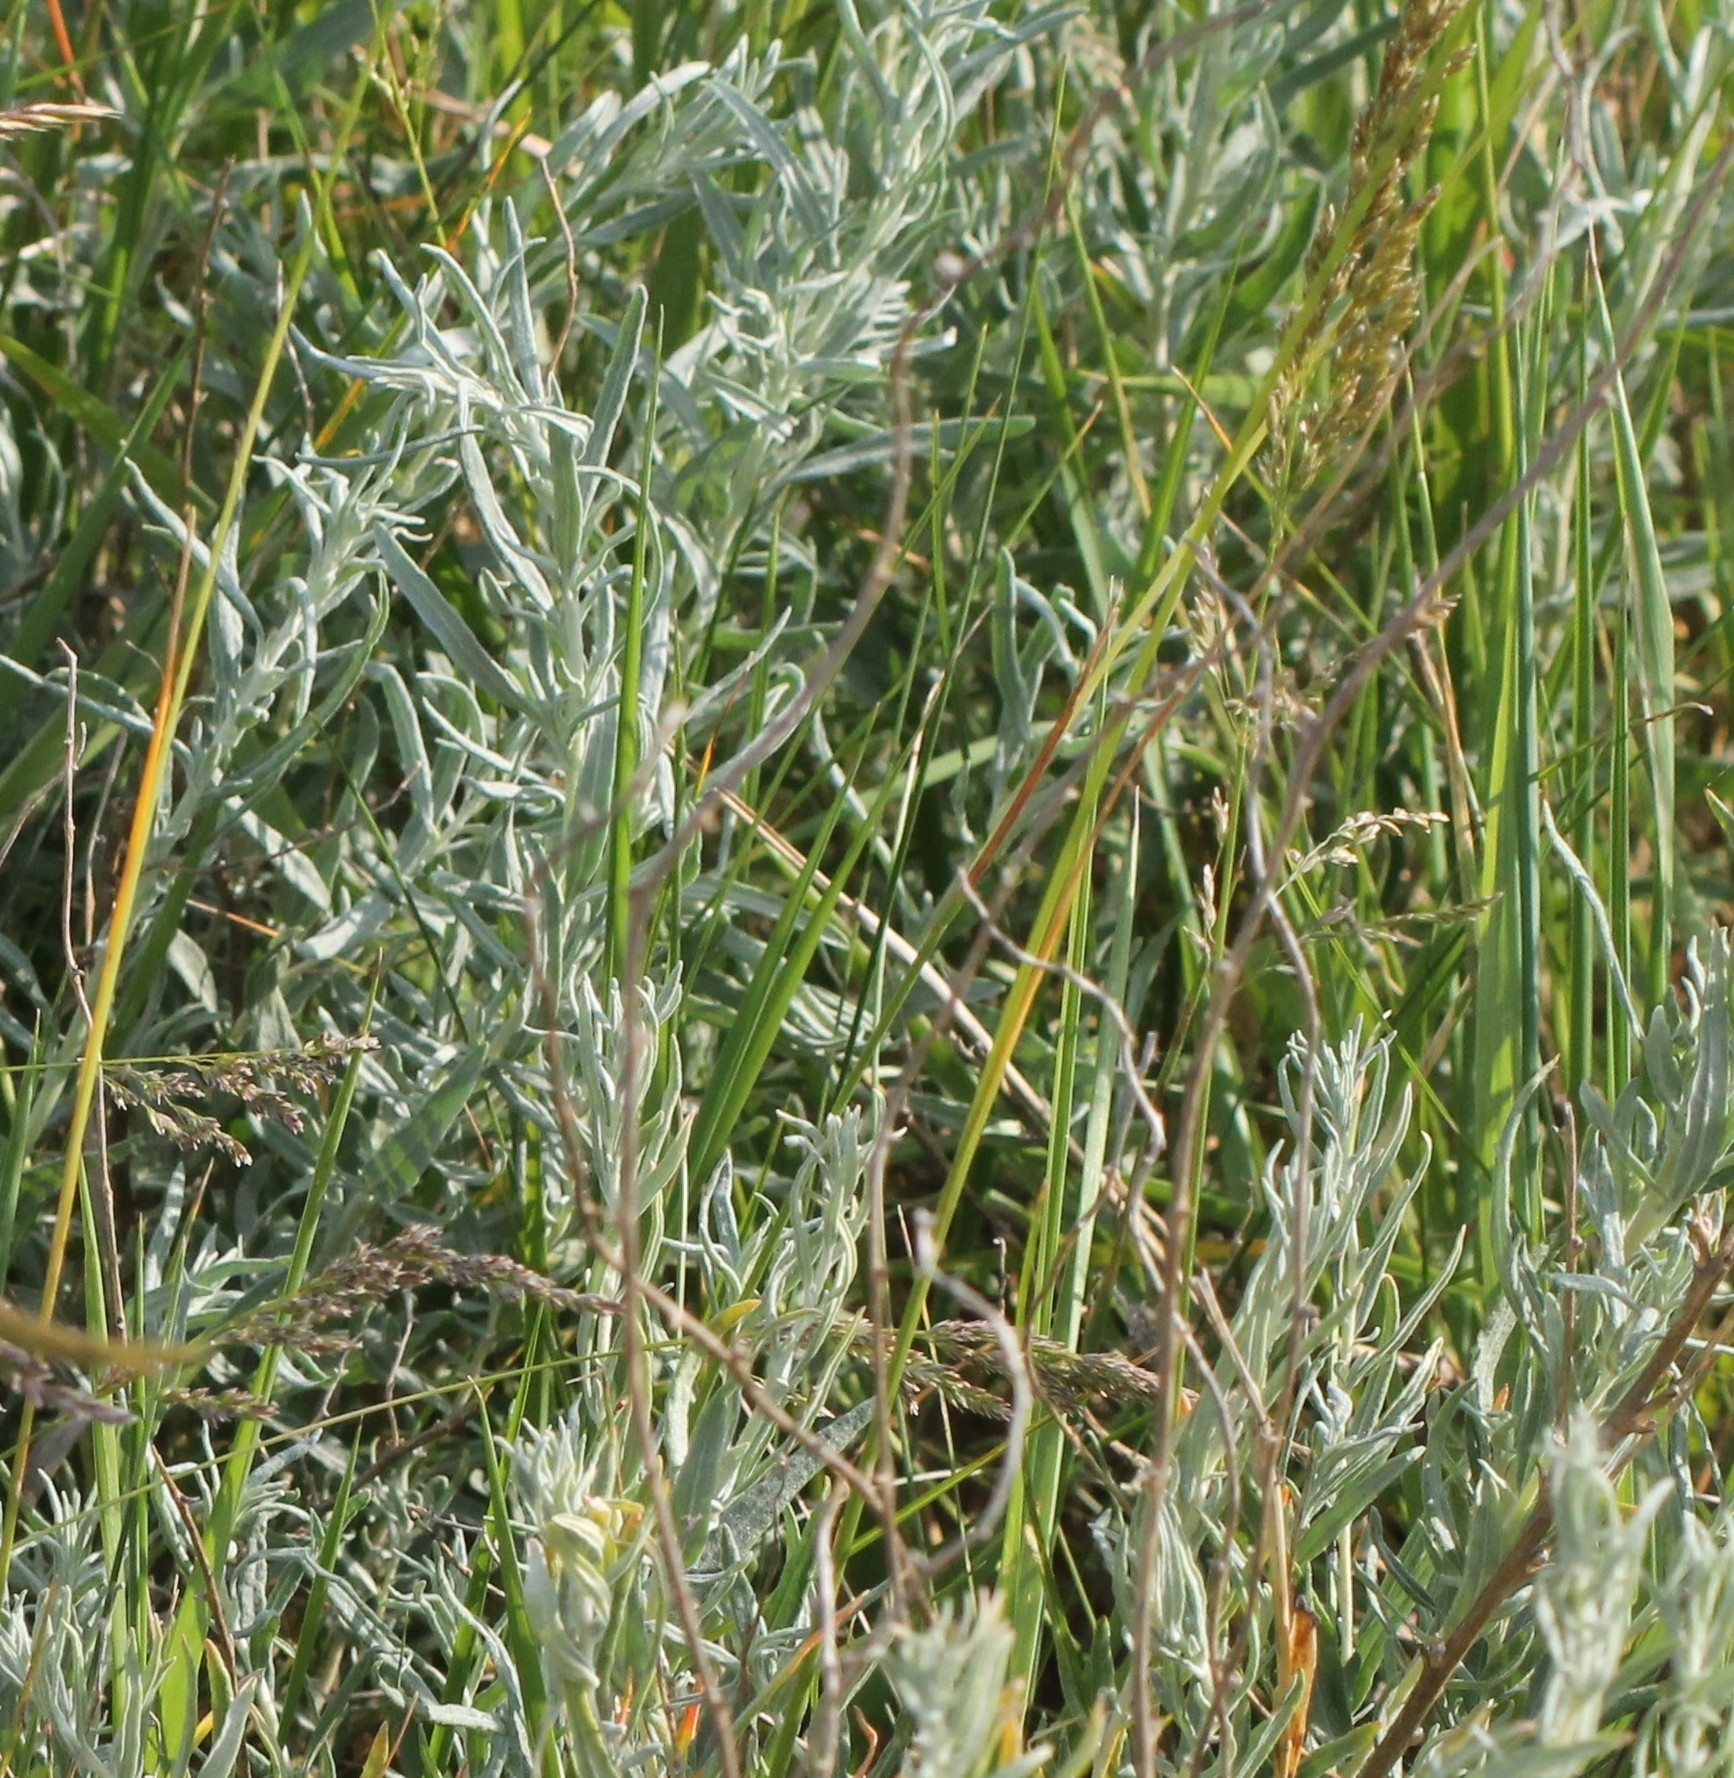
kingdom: Plantae
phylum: Tracheophyta
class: Magnoliopsida
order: Asterales
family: Asteraceae
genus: Galatella
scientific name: Galatella villosa
